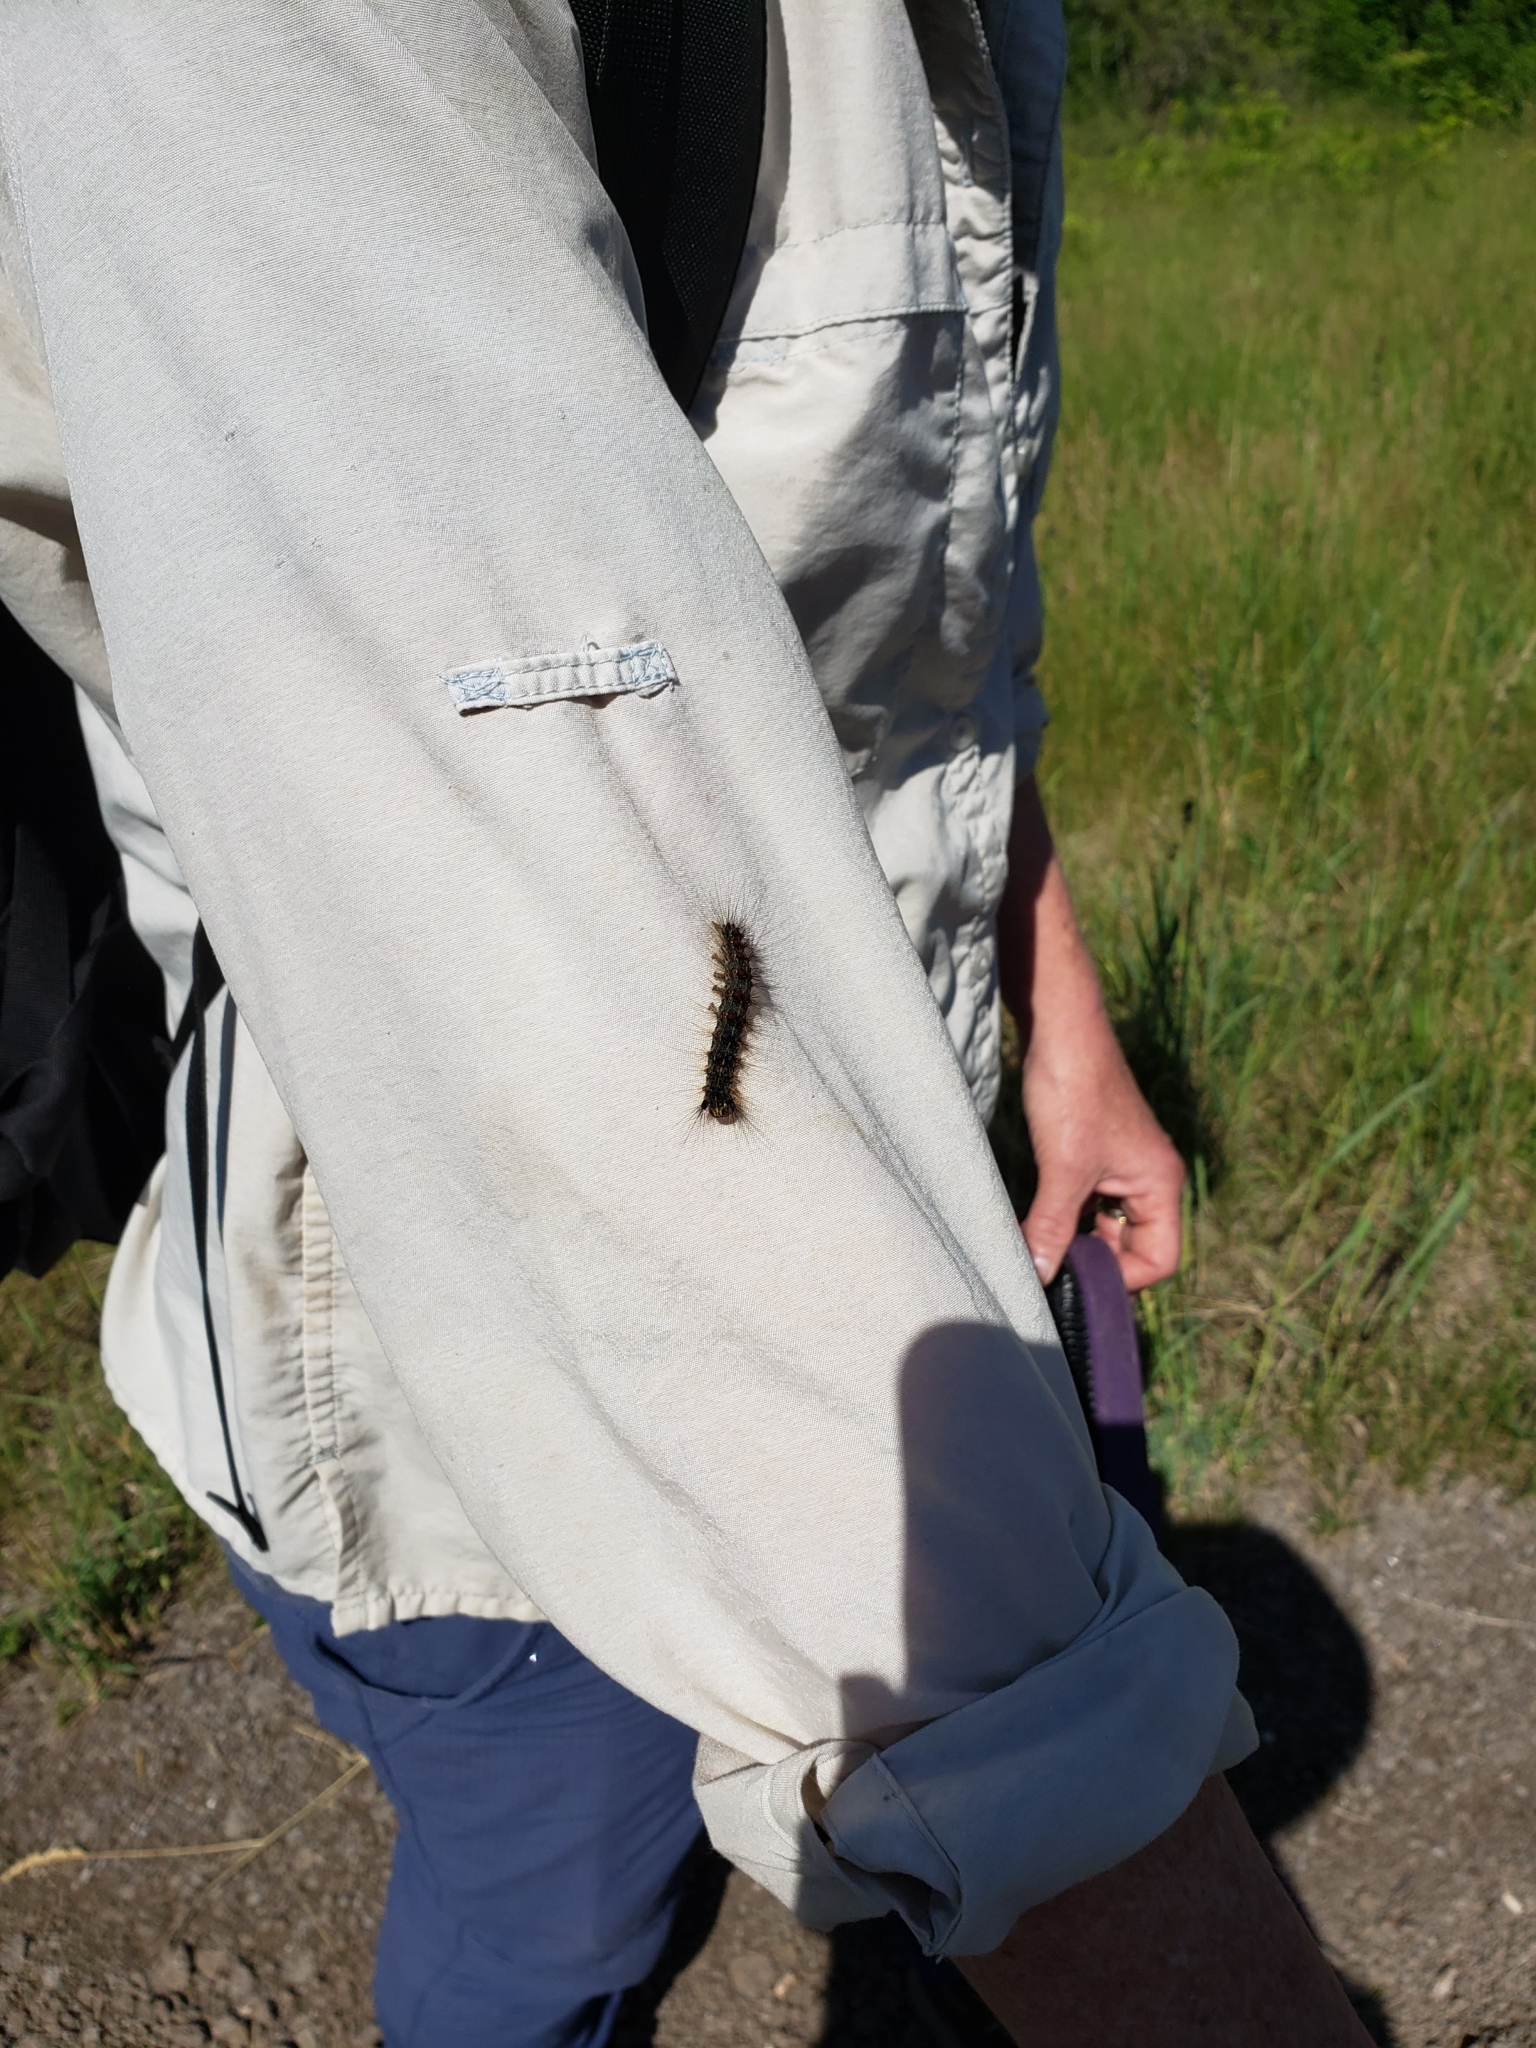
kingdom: Animalia
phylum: Arthropoda
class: Insecta
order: Lepidoptera
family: Erebidae
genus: Lymantria
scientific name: Lymantria dispar
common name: Gypsy moth
